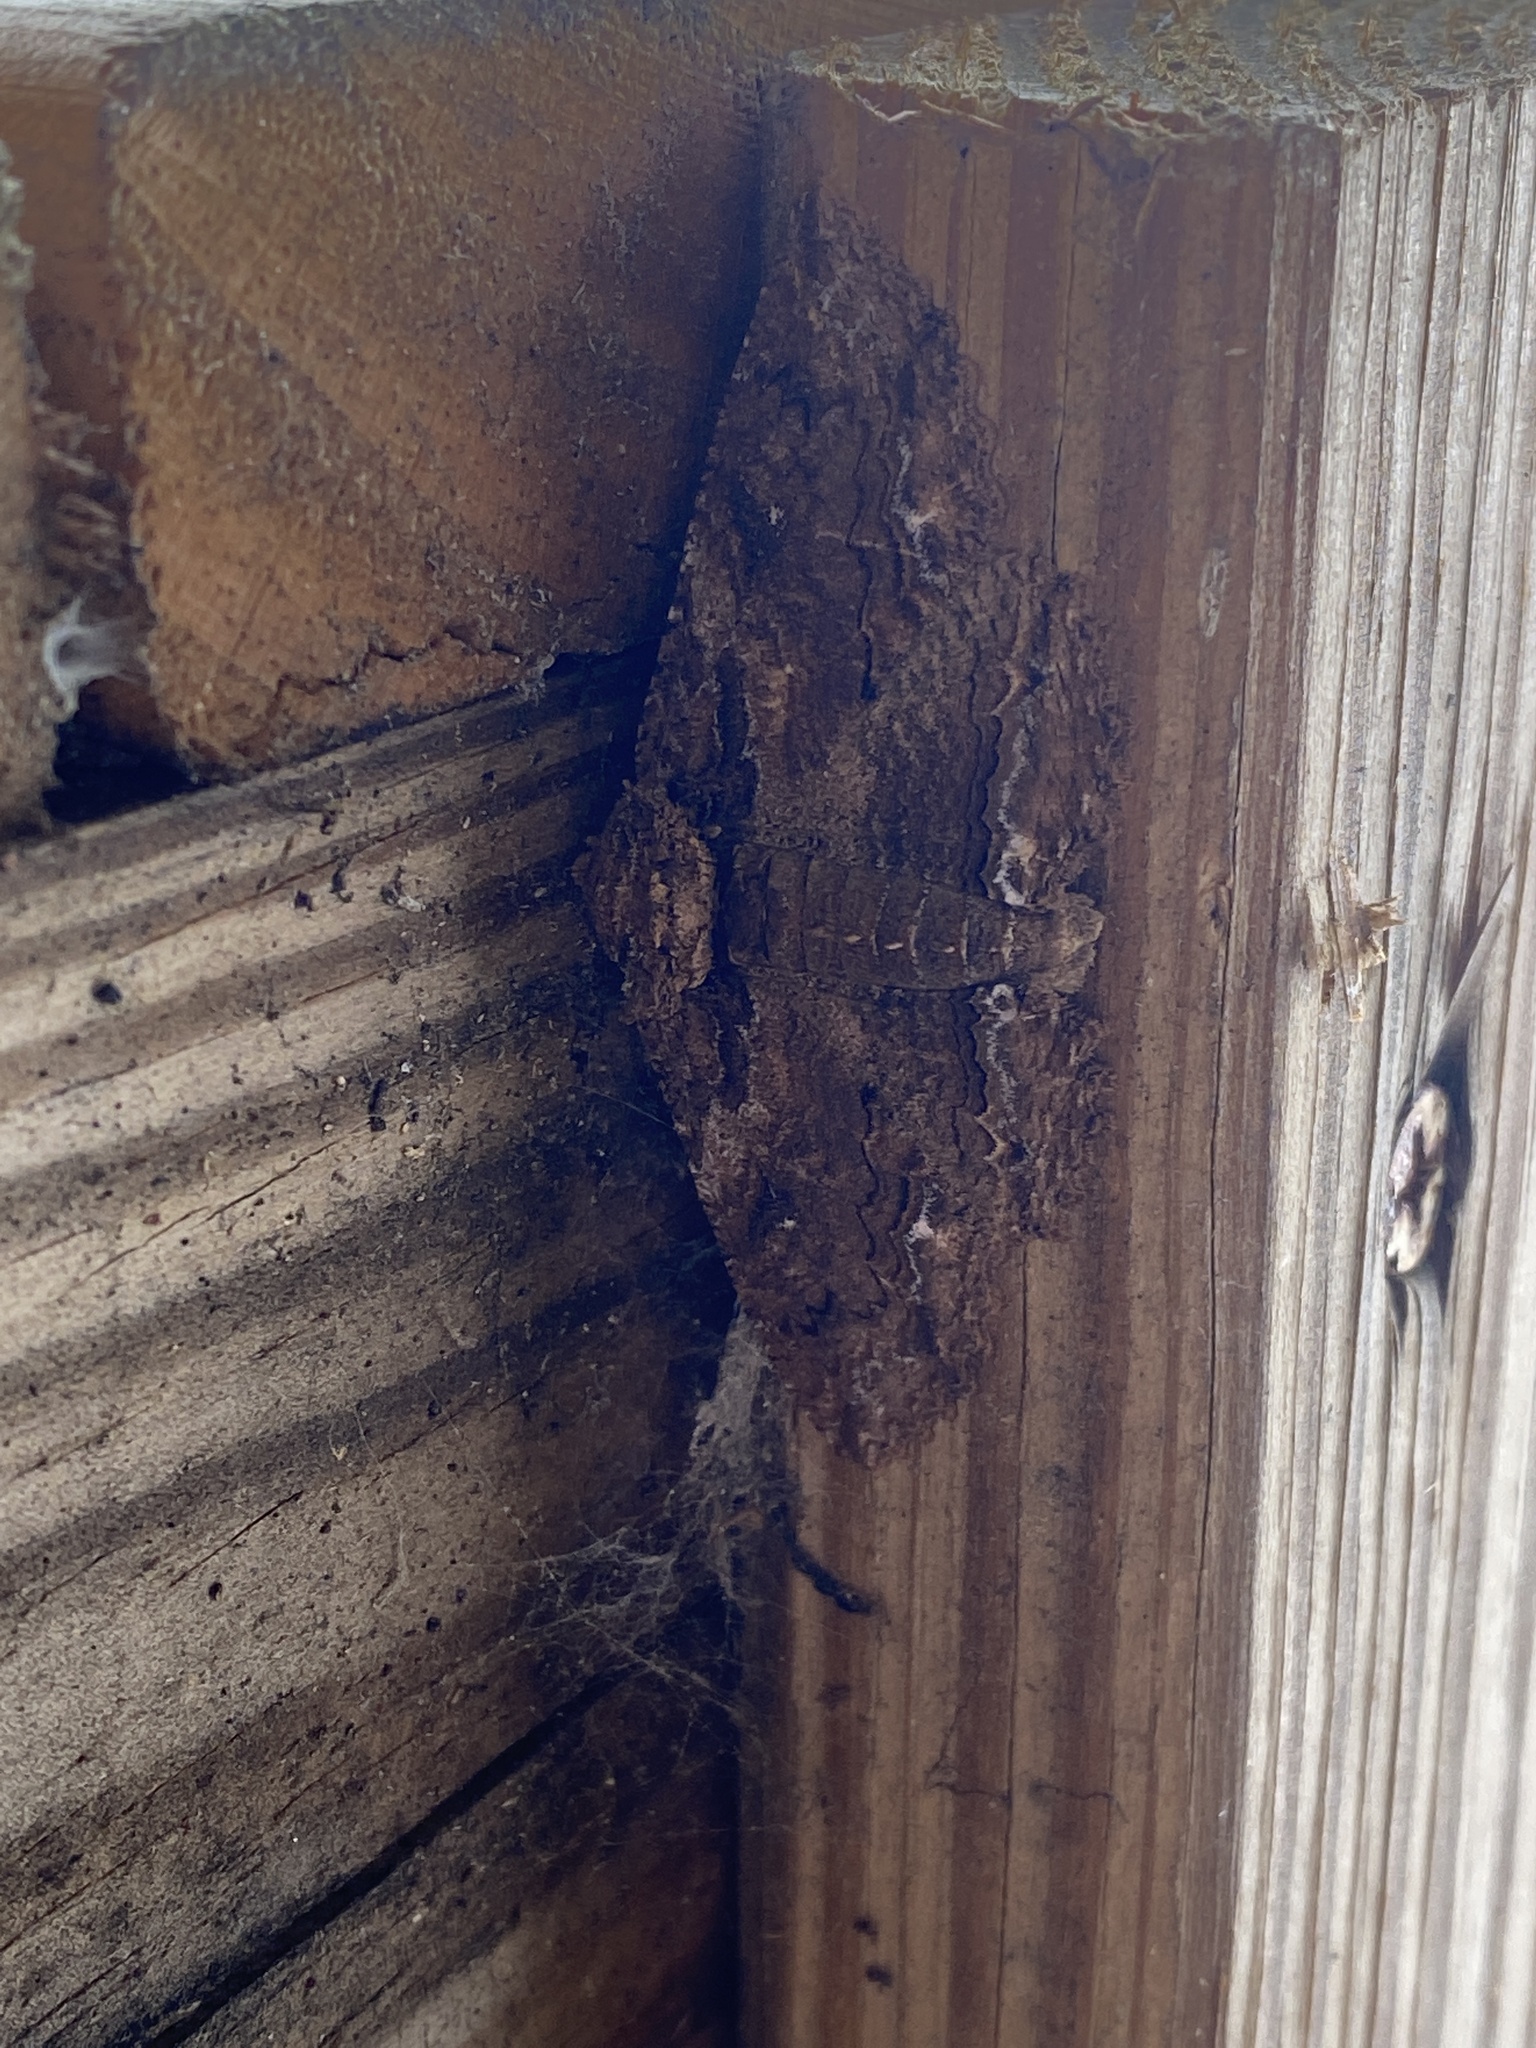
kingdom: Animalia
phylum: Arthropoda
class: Insecta
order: Lepidoptera
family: Erebidae
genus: Zale
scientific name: Zale lunata
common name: Lunate zale moth
